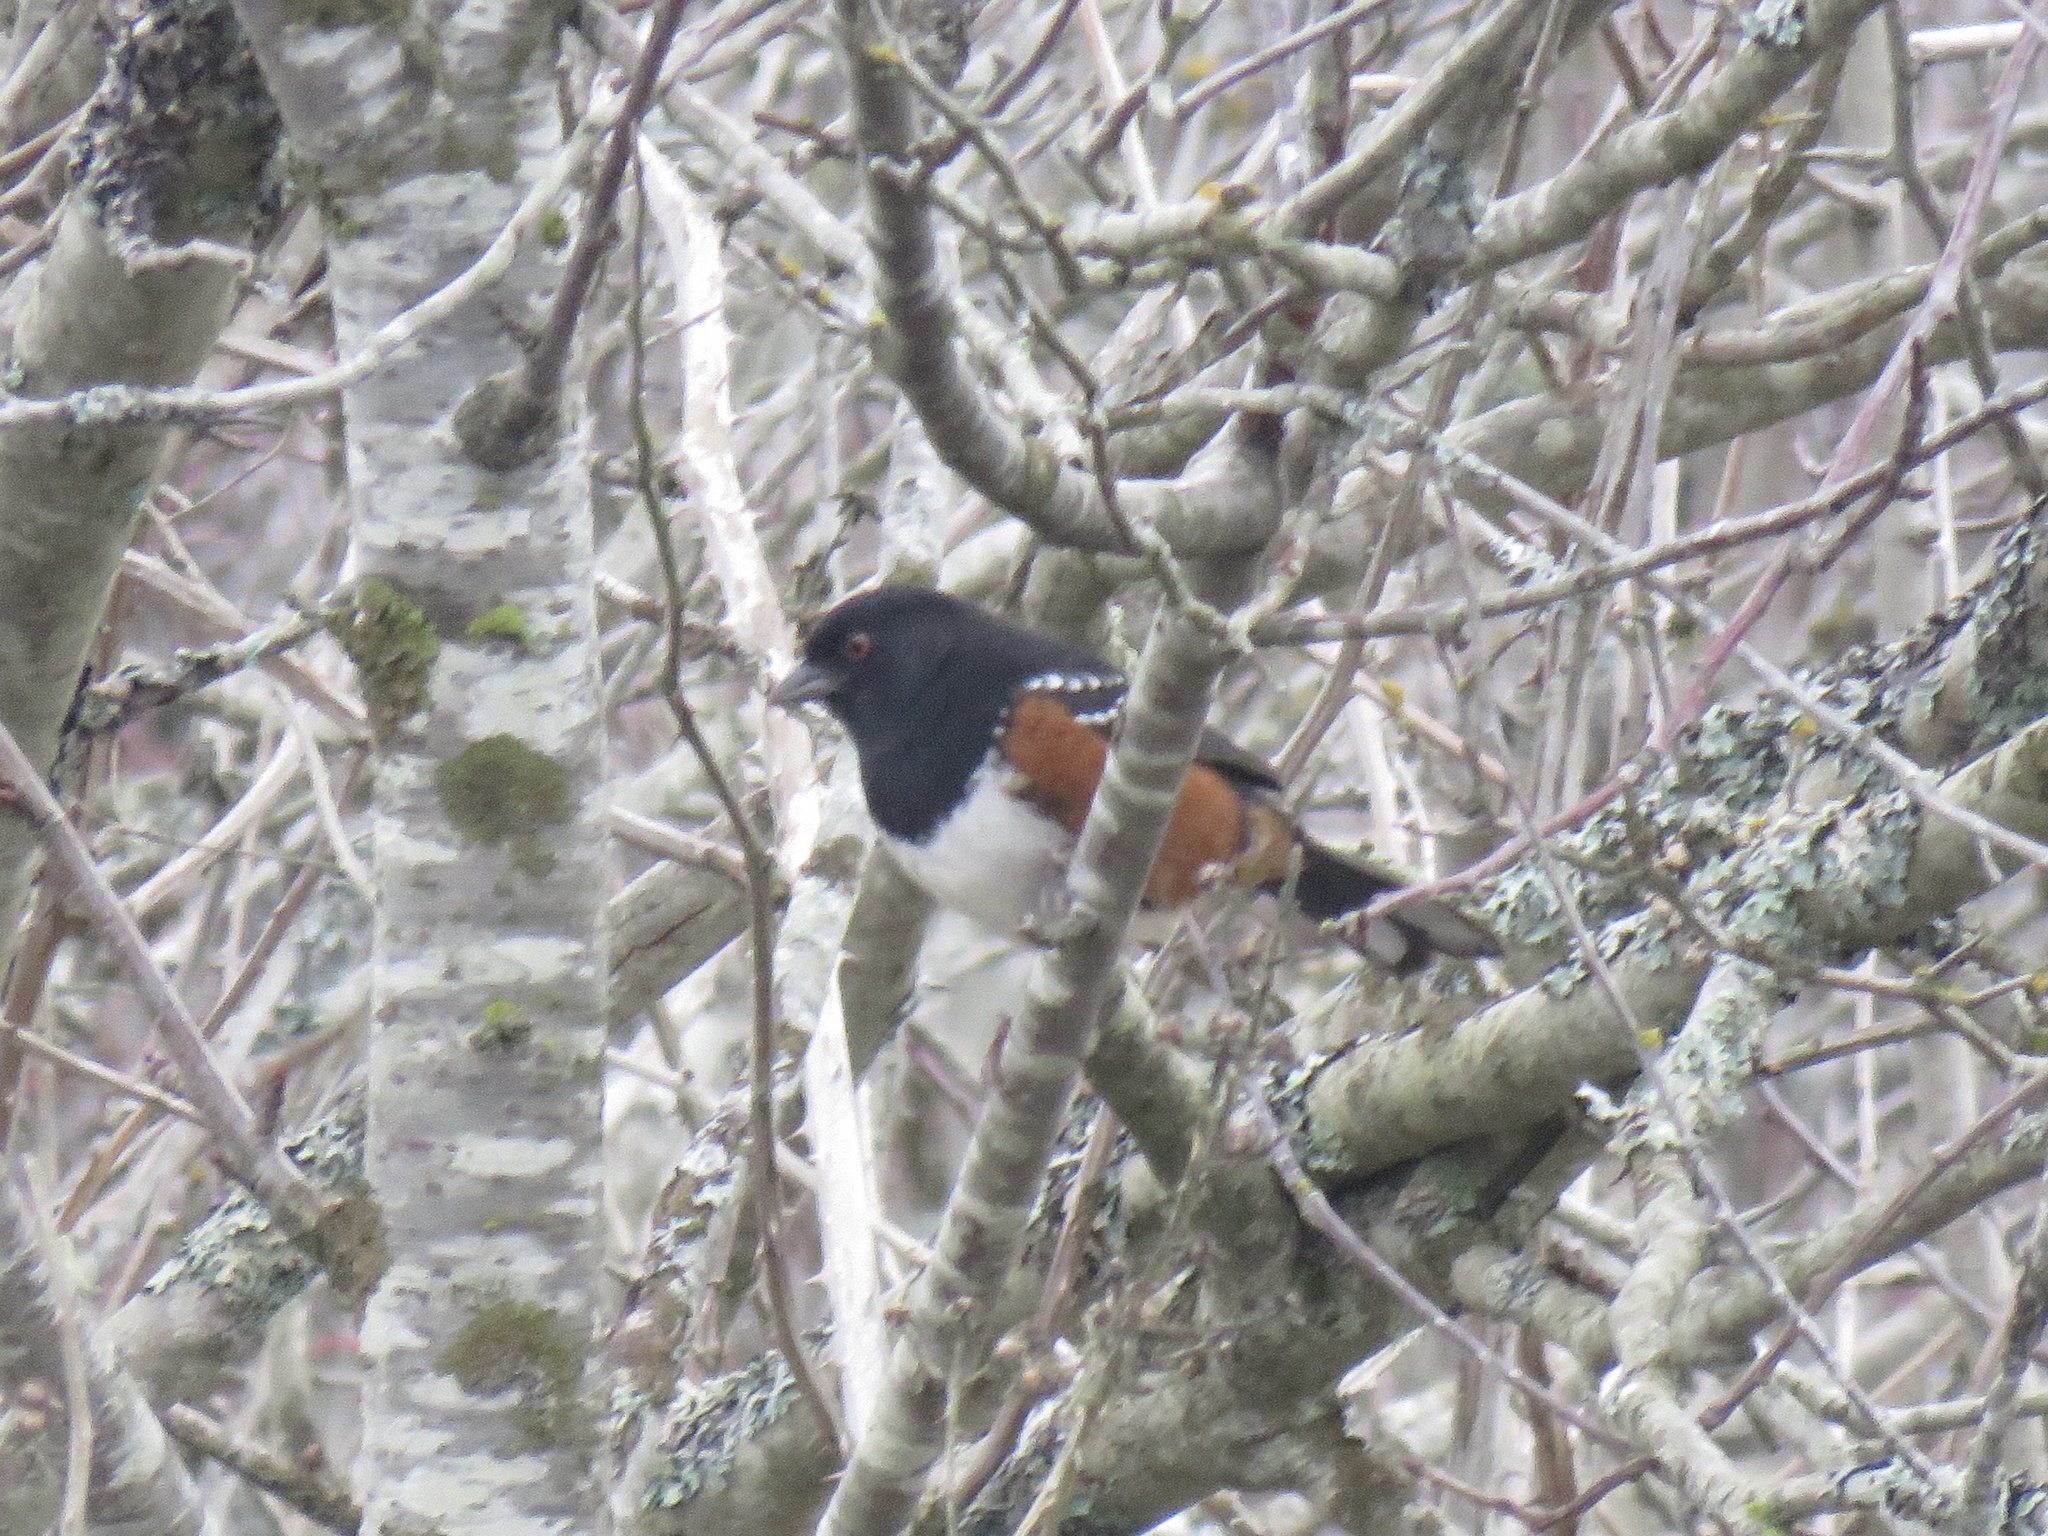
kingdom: Animalia
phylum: Chordata
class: Aves
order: Passeriformes
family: Passerellidae
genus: Pipilo
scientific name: Pipilo maculatus
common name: Spotted towhee
